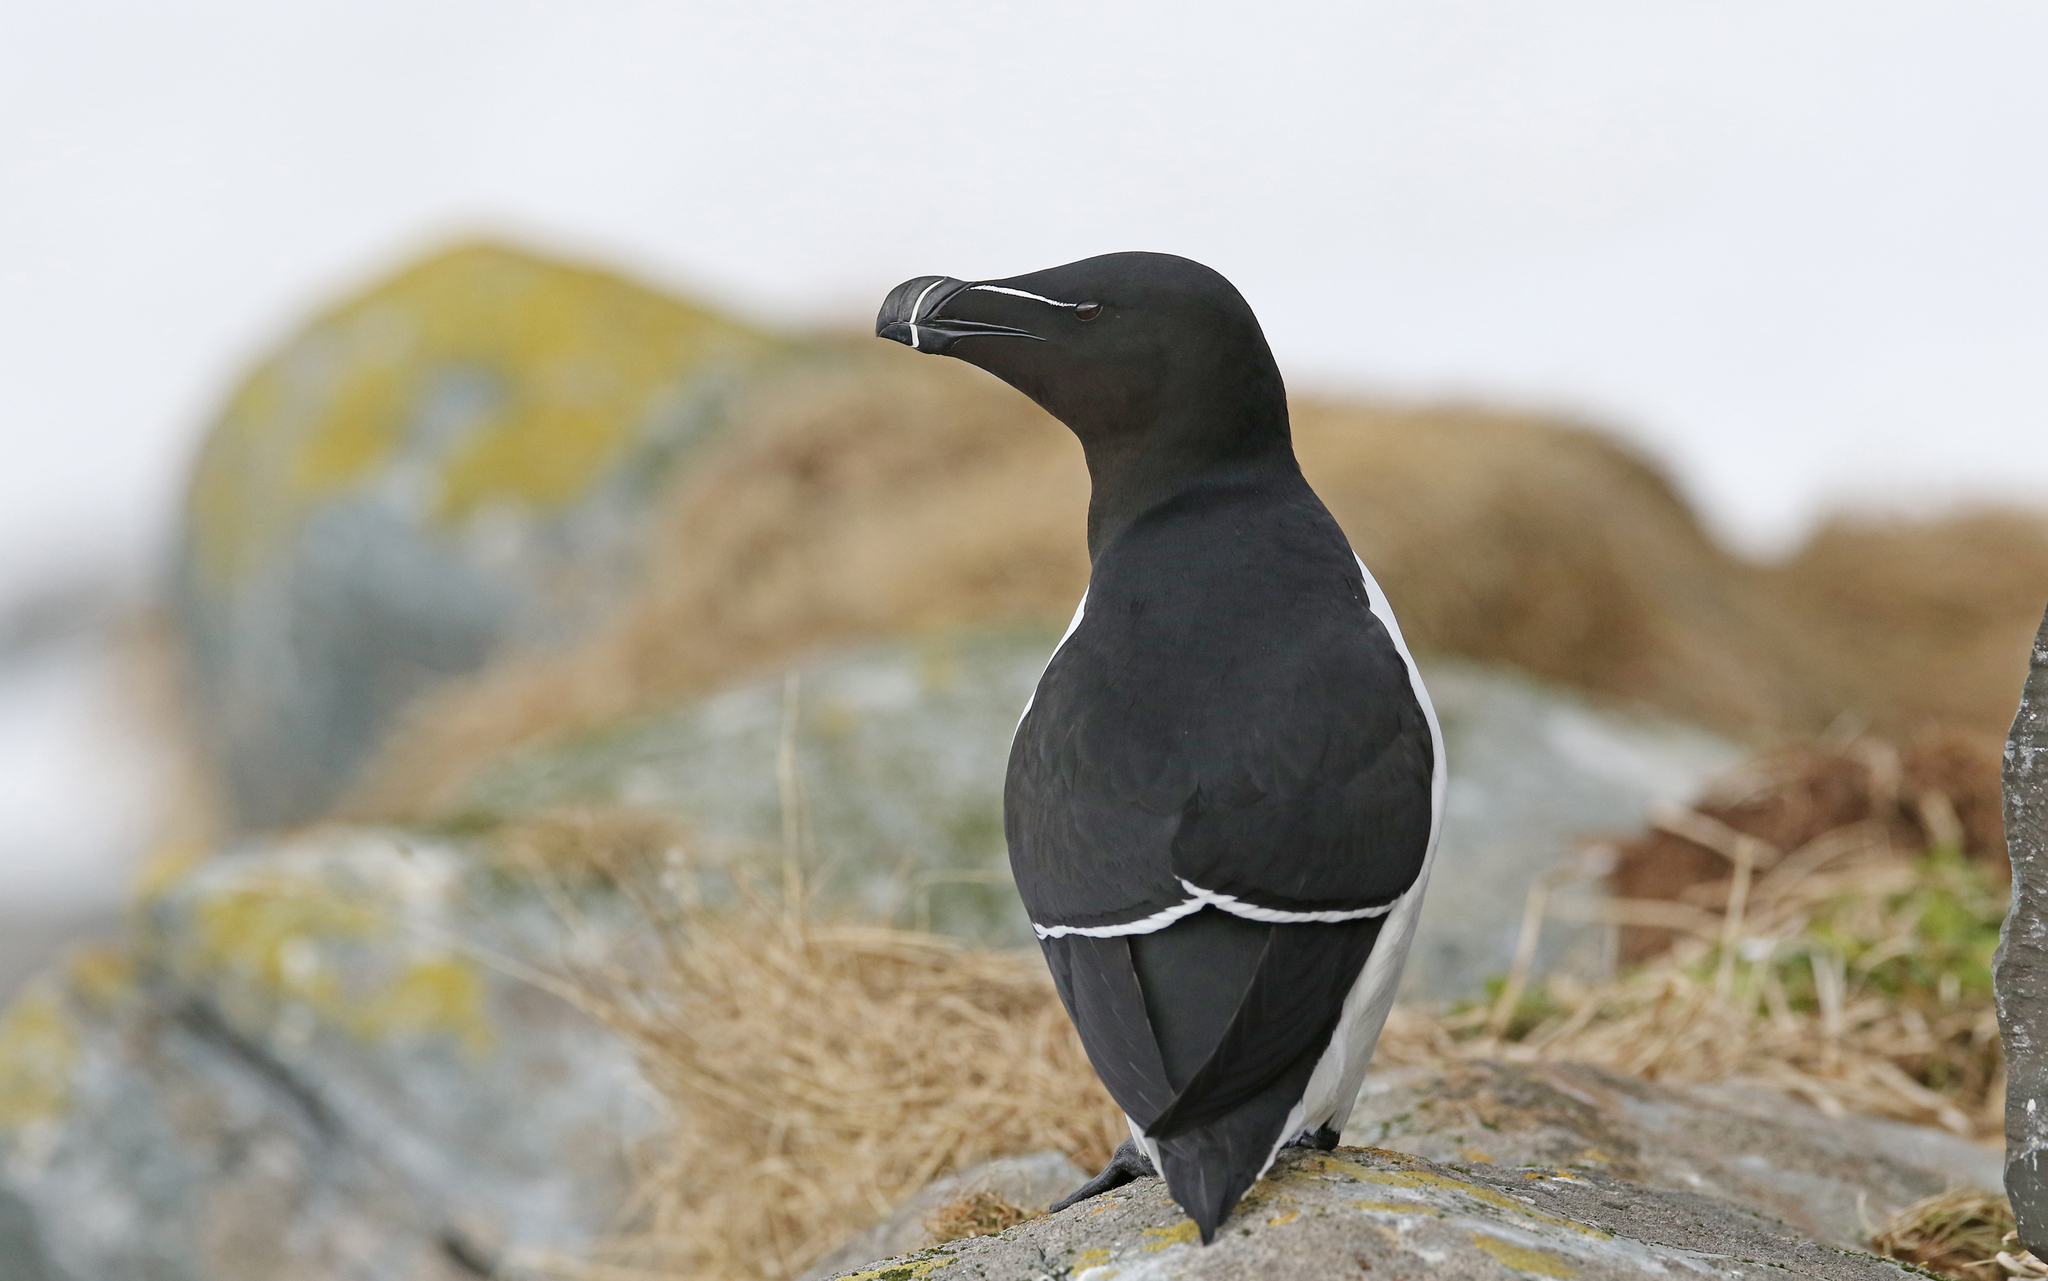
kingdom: Animalia
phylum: Chordata
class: Aves
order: Charadriiformes
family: Alcidae
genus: Alca
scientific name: Alca torda
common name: Razorbill
